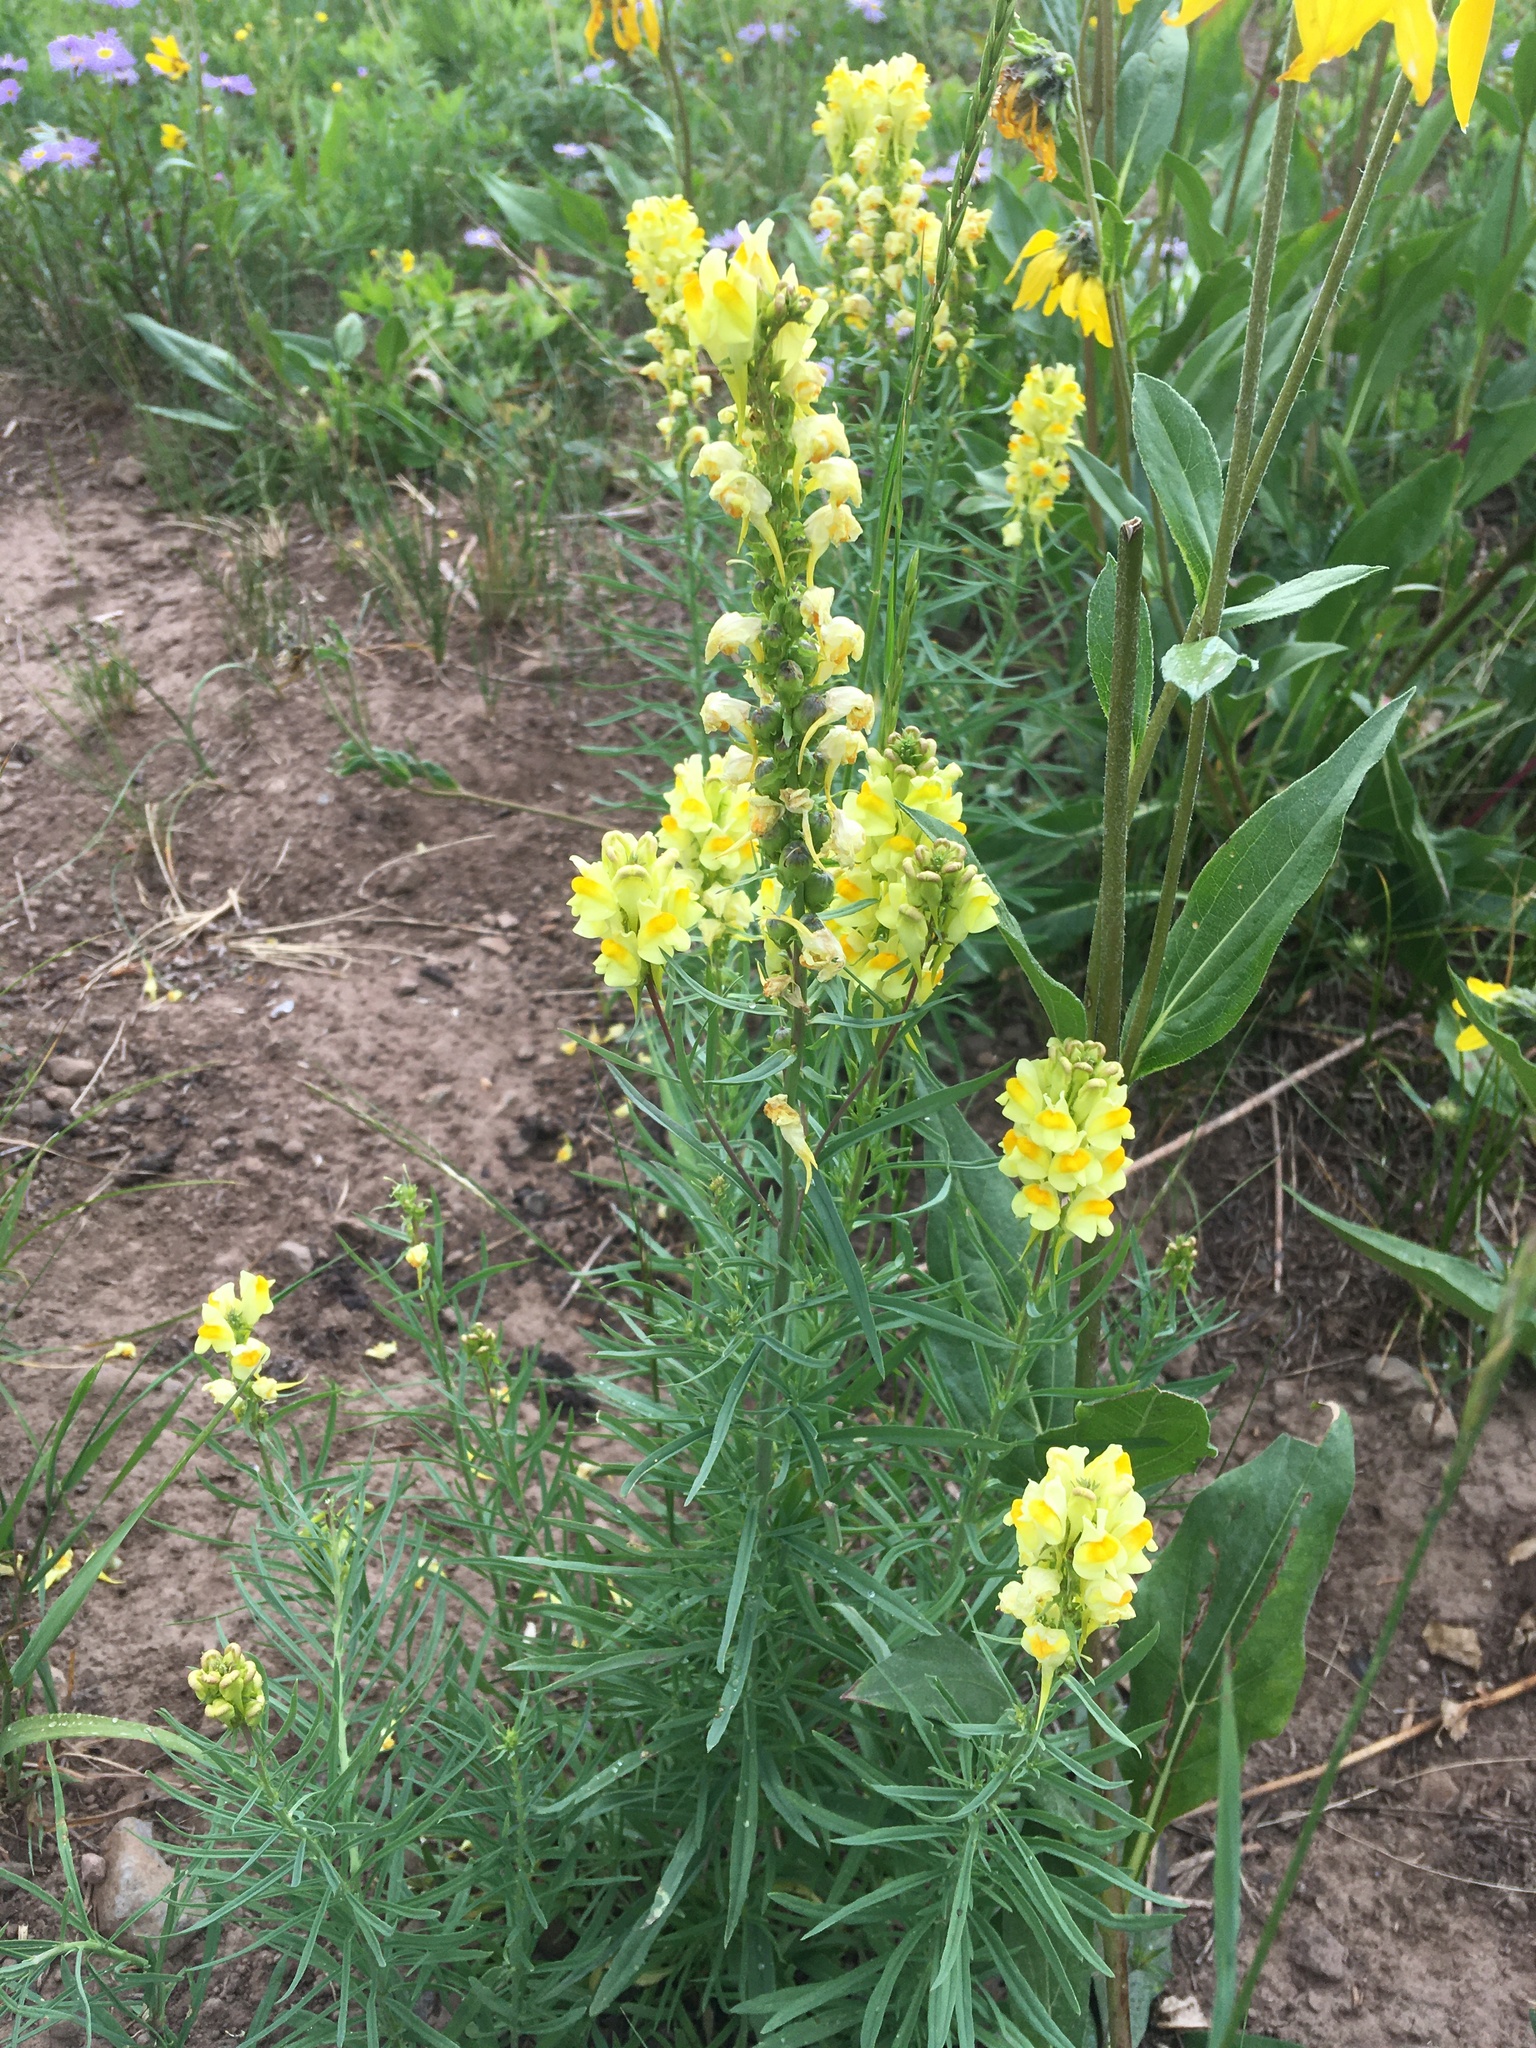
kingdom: Plantae
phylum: Tracheophyta
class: Magnoliopsida
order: Lamiales
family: Plantaginaceae
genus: Linaria
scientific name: Linaria vulgaris
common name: Butter and eggs
